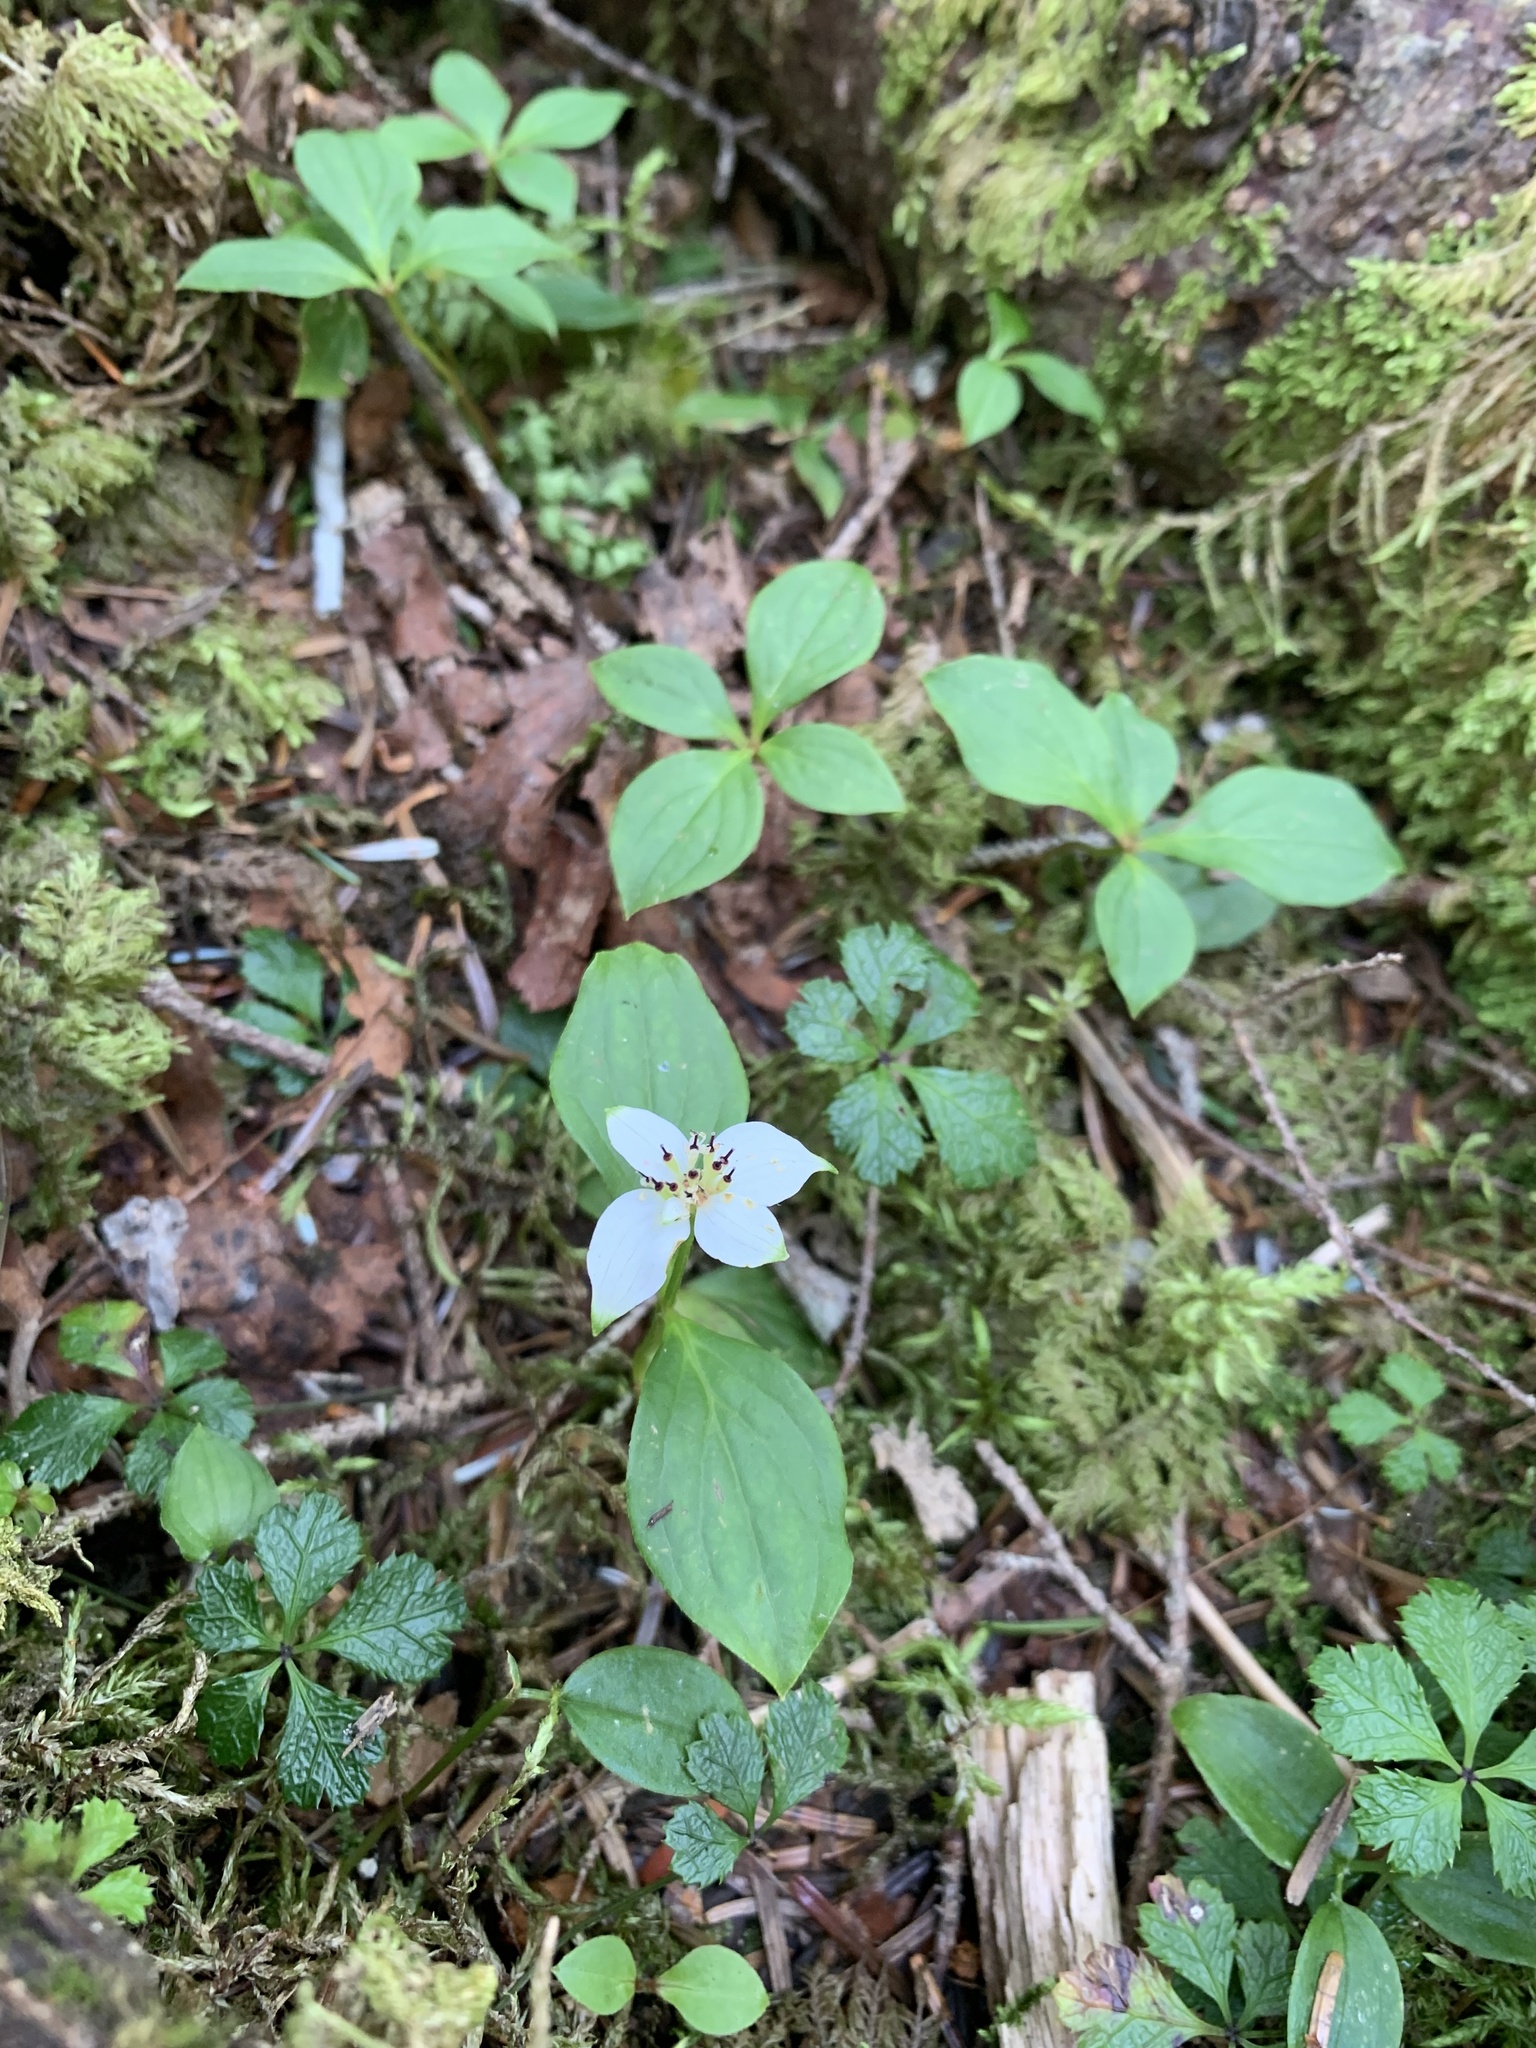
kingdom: Plantae
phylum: Tracheophyta
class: Magnoliopsida
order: Cornales
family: Cornaceae
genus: Cornus
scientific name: Cornus canadensis
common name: Creeping dogwood
